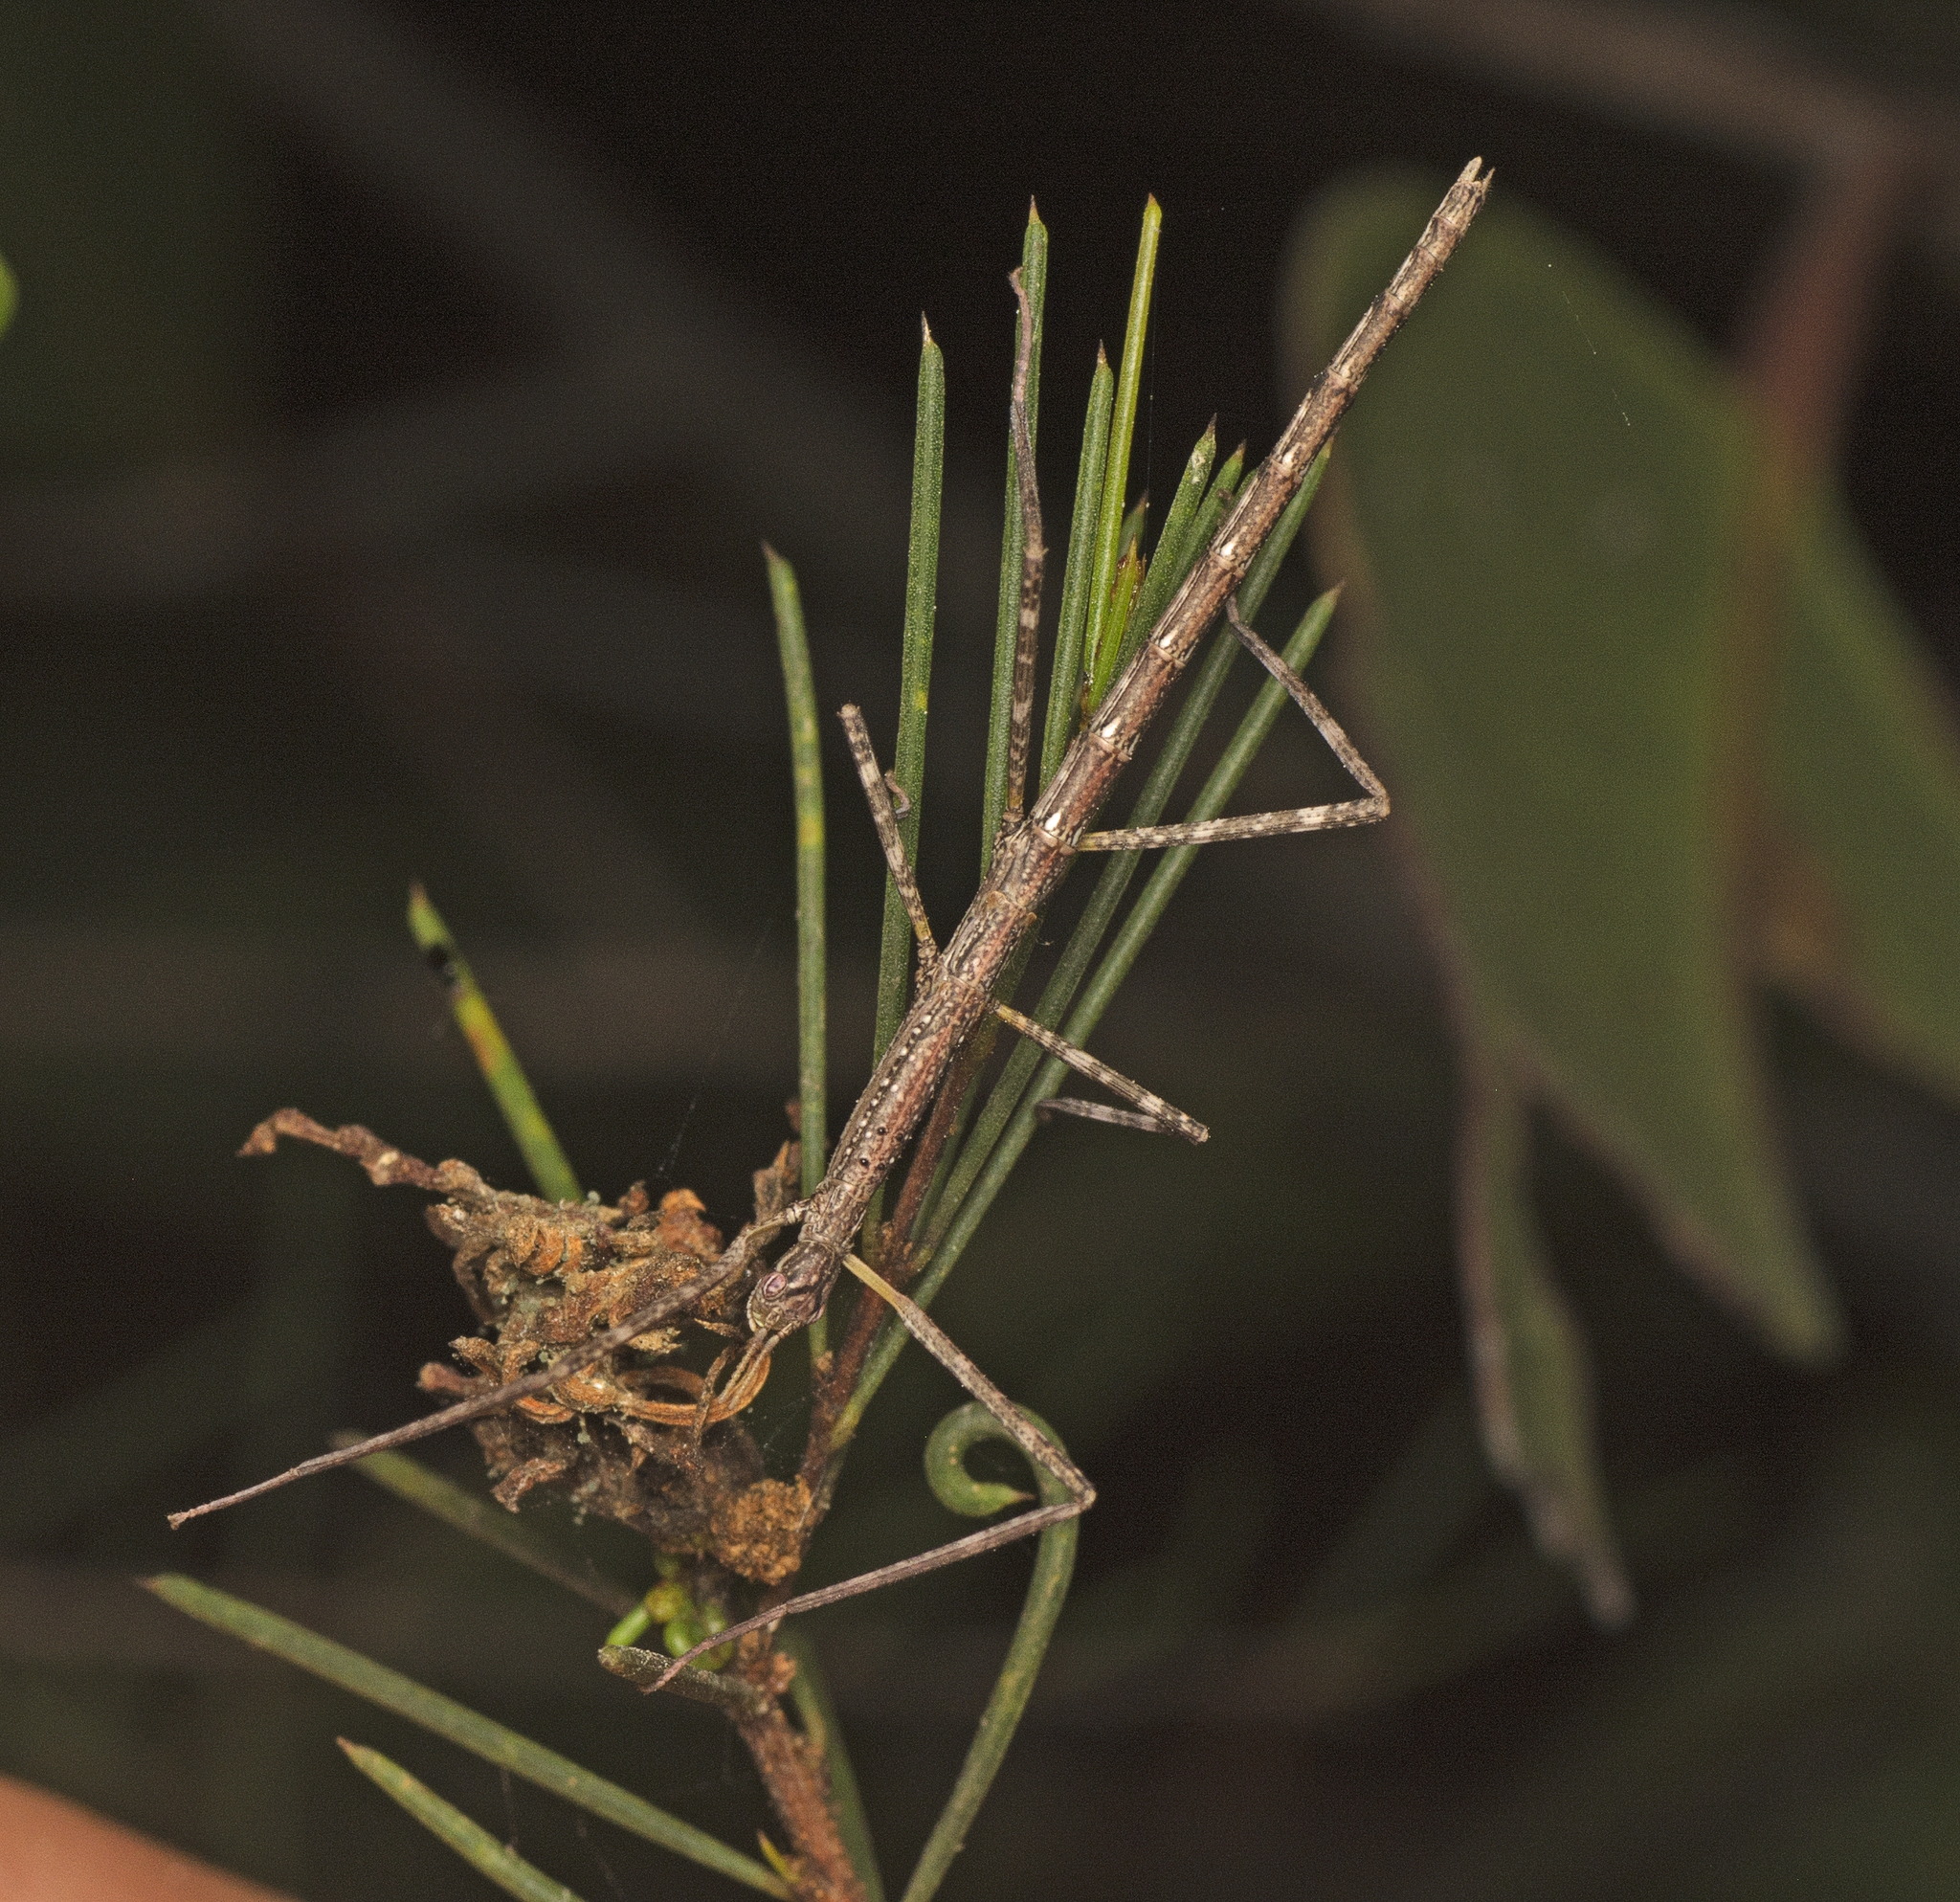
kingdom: Animalia
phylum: Arthropoda
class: Insecta
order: Phasmida
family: Phasmatidae
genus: Anchiale
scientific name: Anchiale austrotessulata
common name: Tessellated stick-insect
